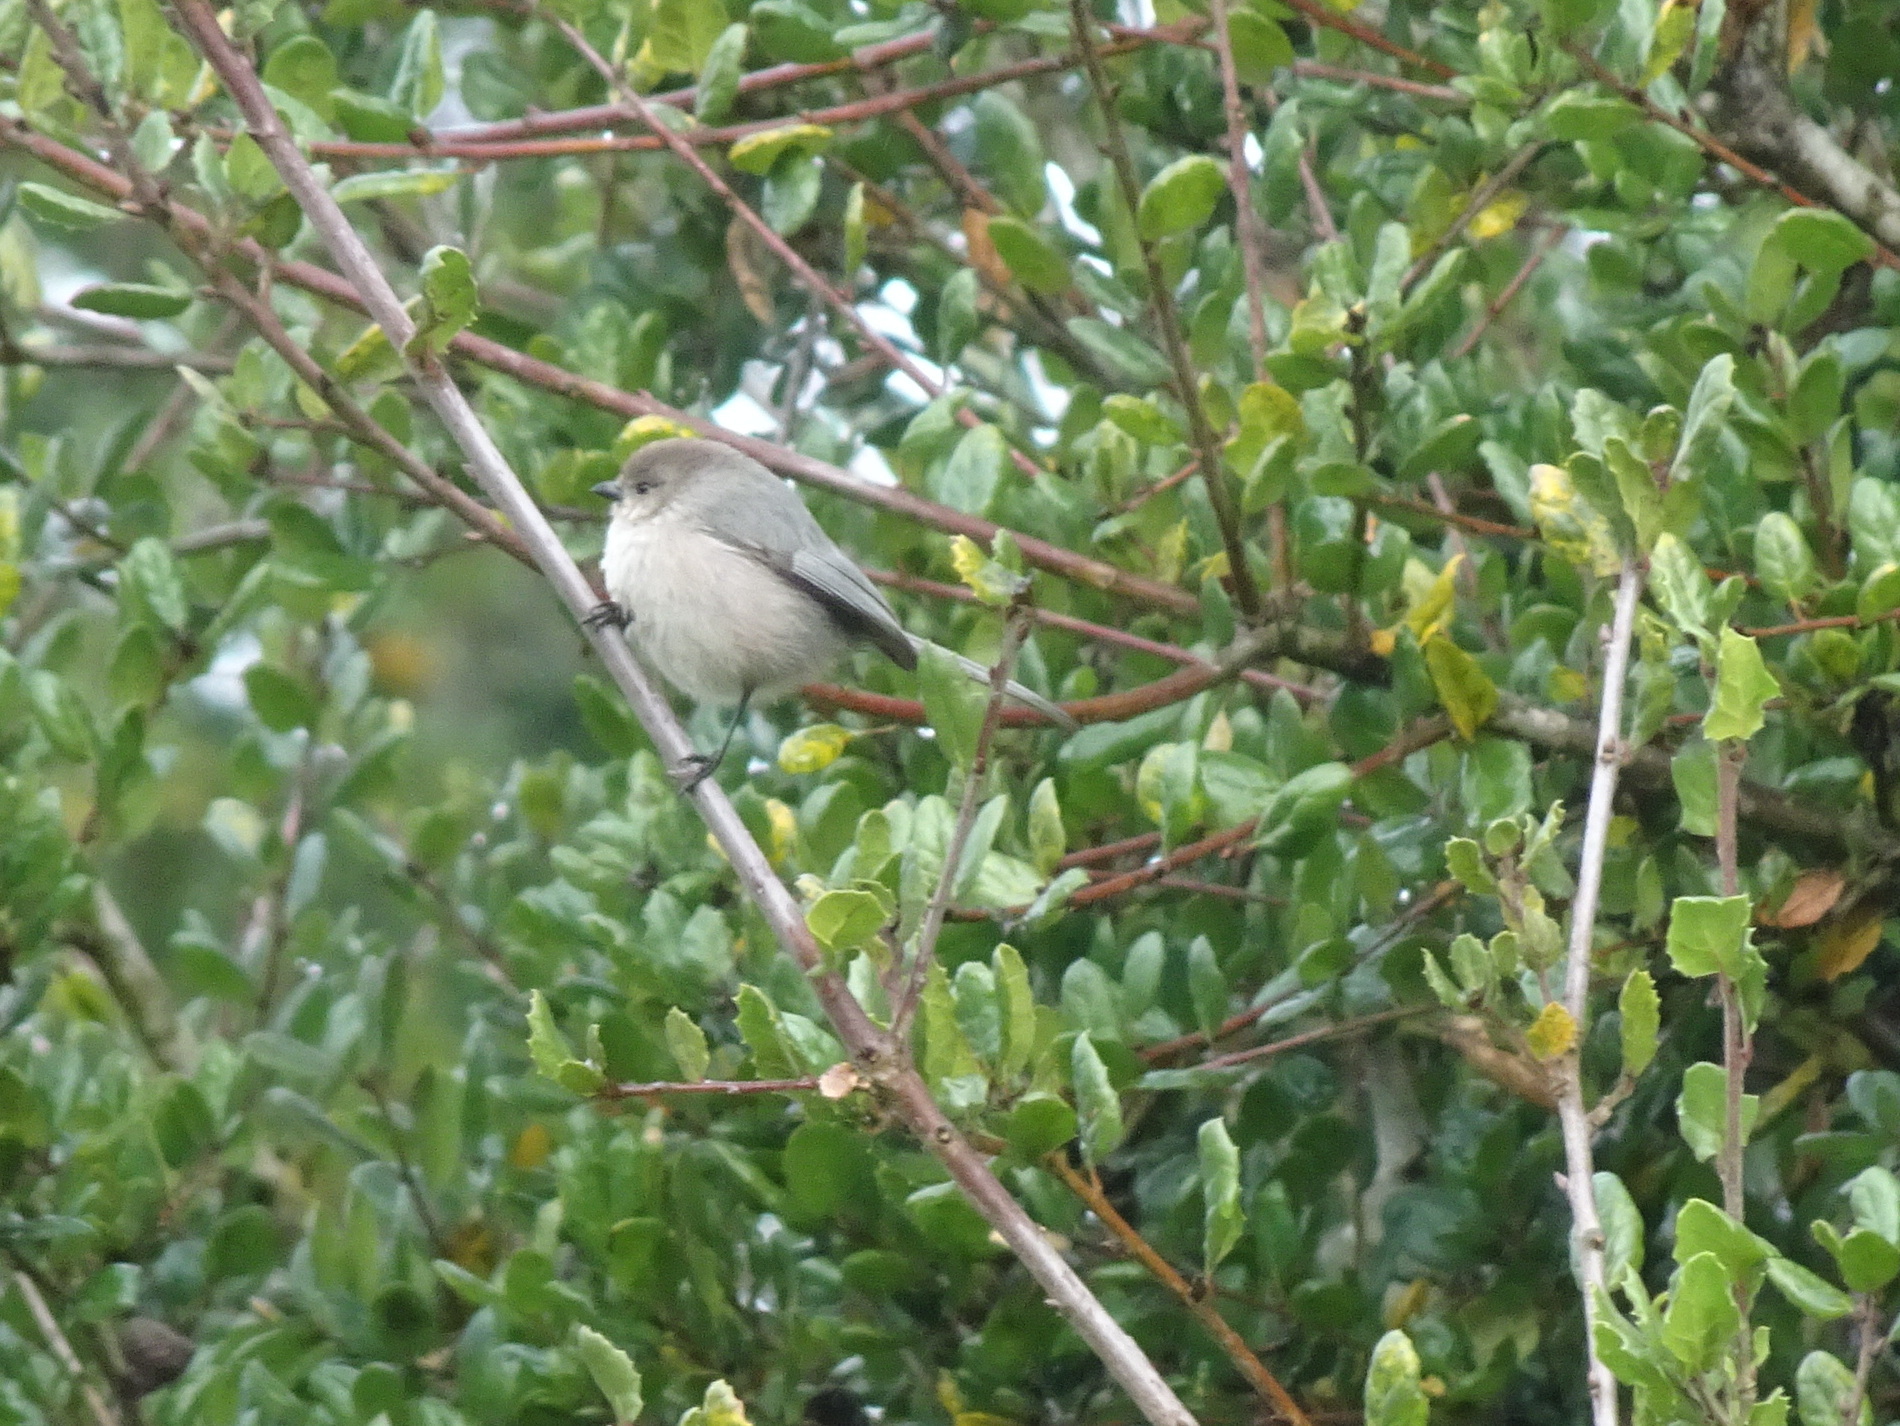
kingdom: Animalia
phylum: Chordata
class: Aves
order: Passeriformes
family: Aegithalidae
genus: Psaltriparus
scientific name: Psaltriparus minimus
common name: American bushtit
